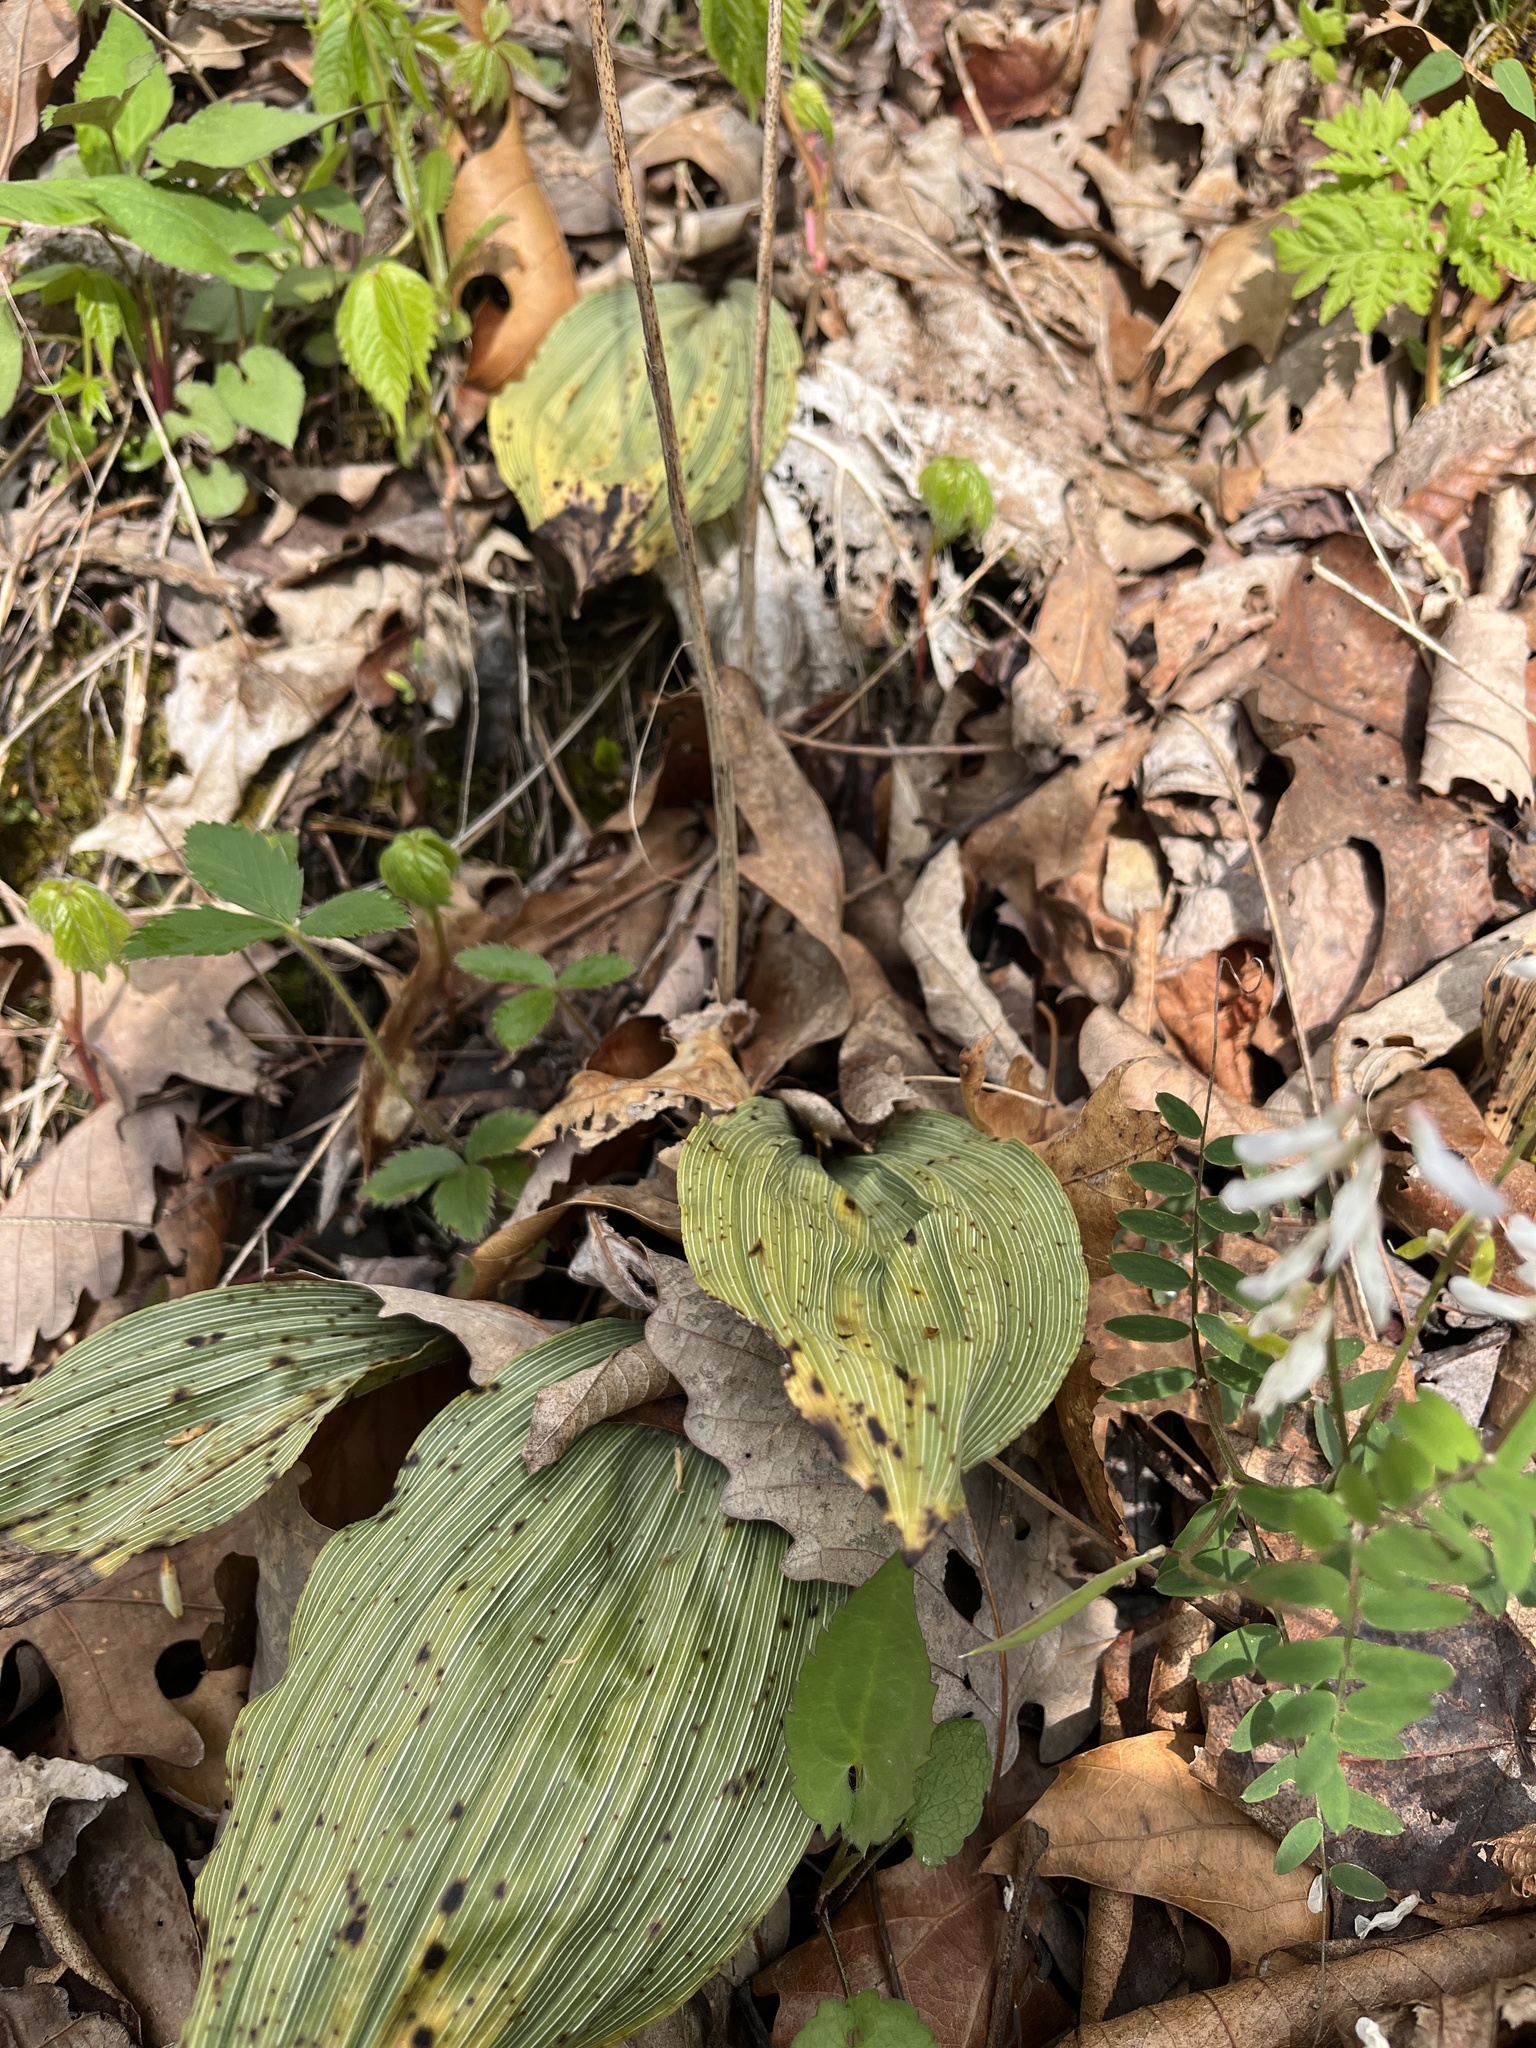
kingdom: Plantae
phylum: Tracheophyta
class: Liliopsida
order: Asparagales
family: Orchidaceae
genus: Aplectrum
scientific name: Aplectrum hyemale
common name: Adam-and-eve
